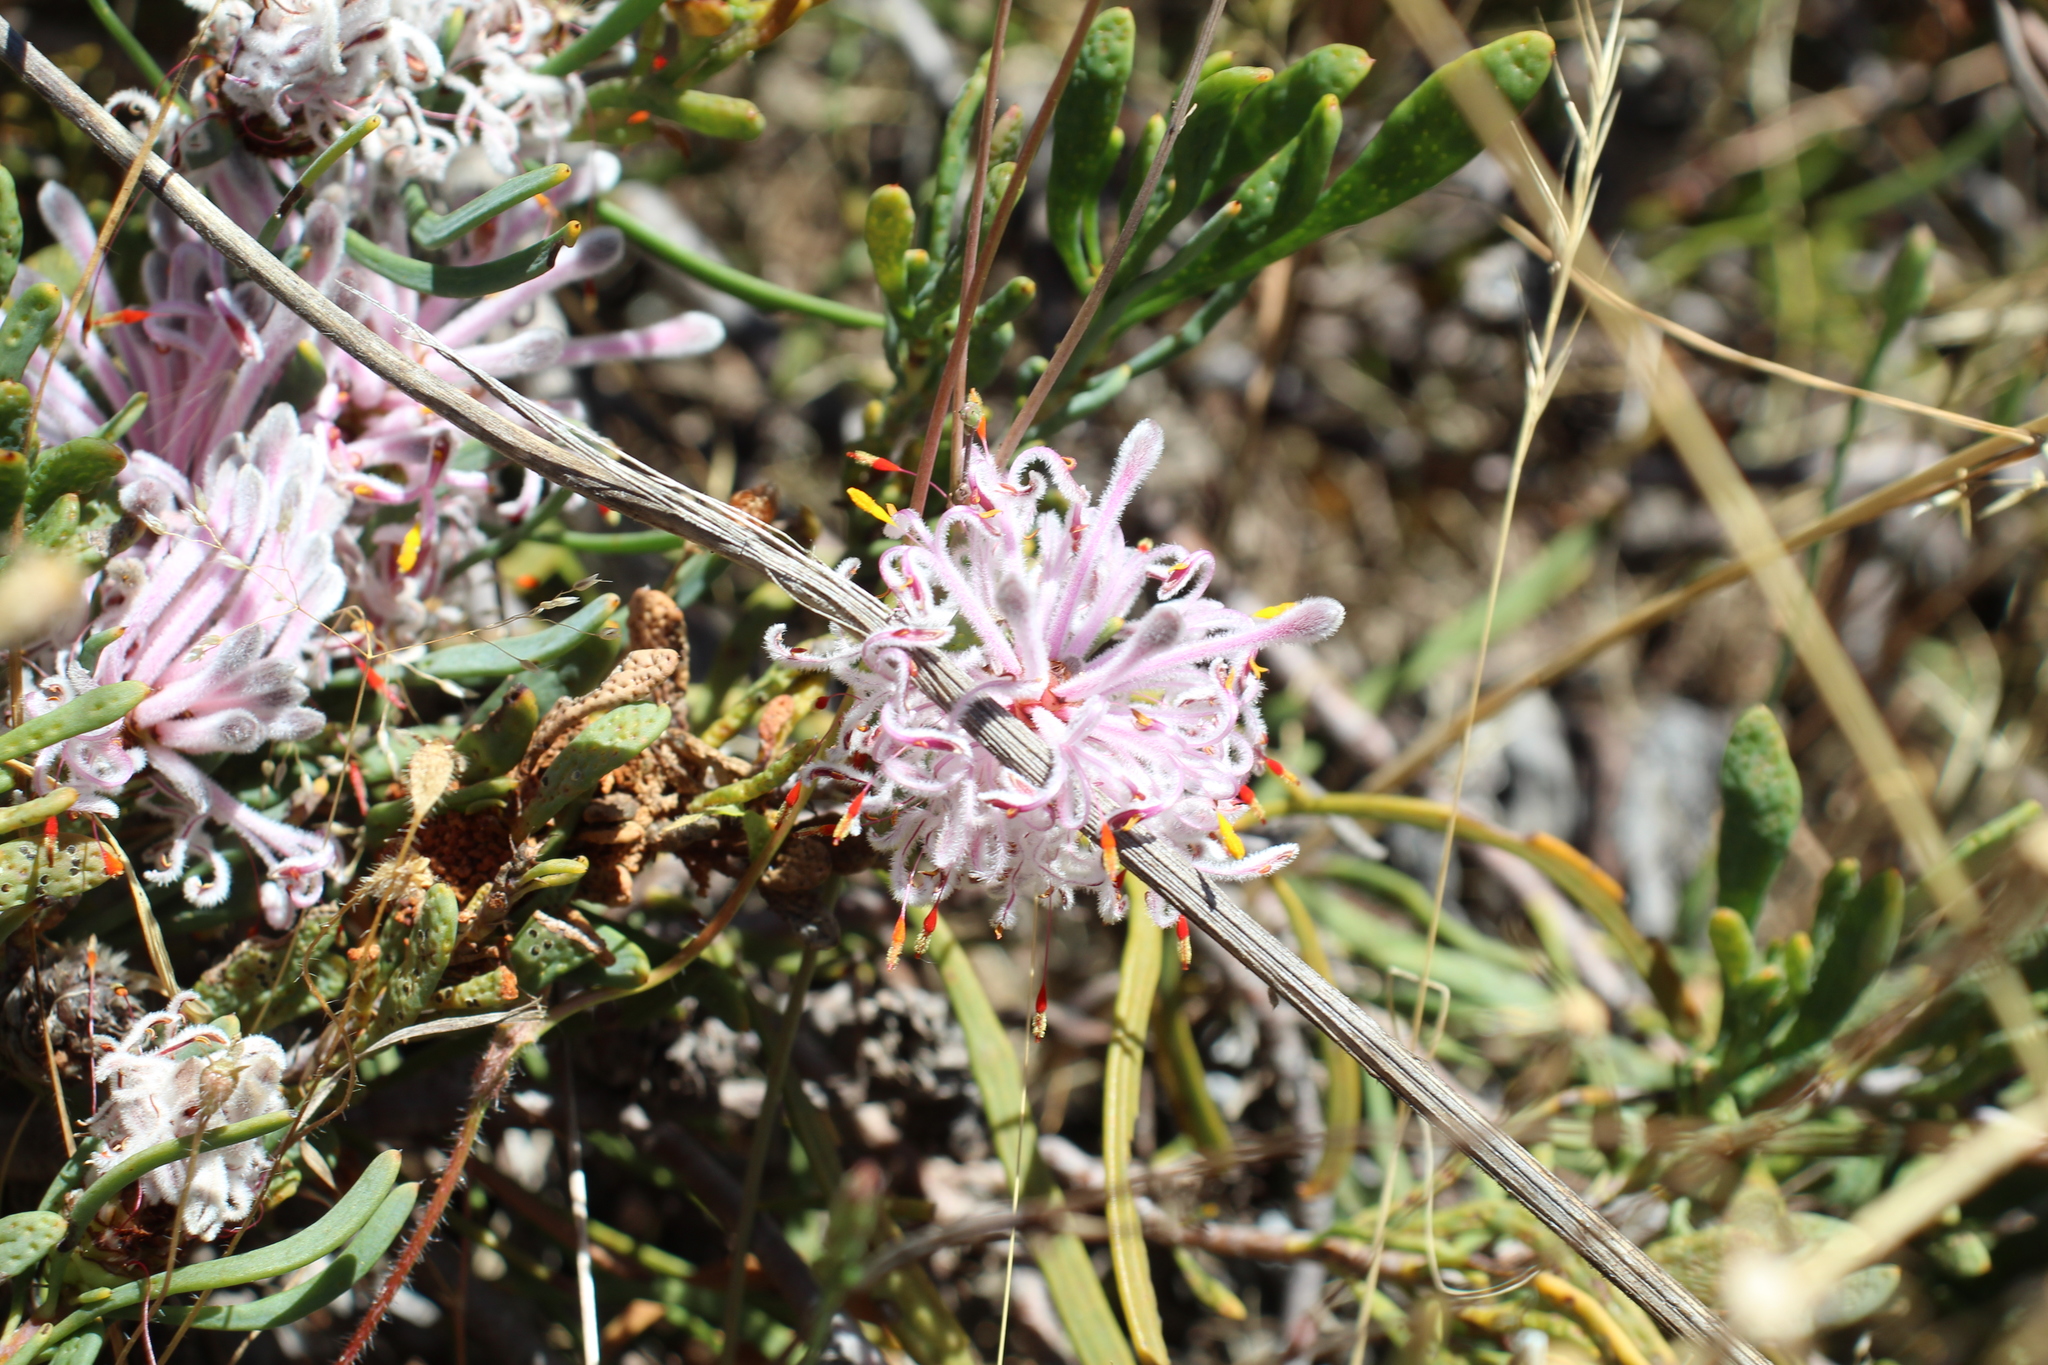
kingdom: Plantae
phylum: Tracheophyta
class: Magnoliopsida
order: Proteales
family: Proteaceae
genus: Petrophile
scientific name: Petrophile linearis
